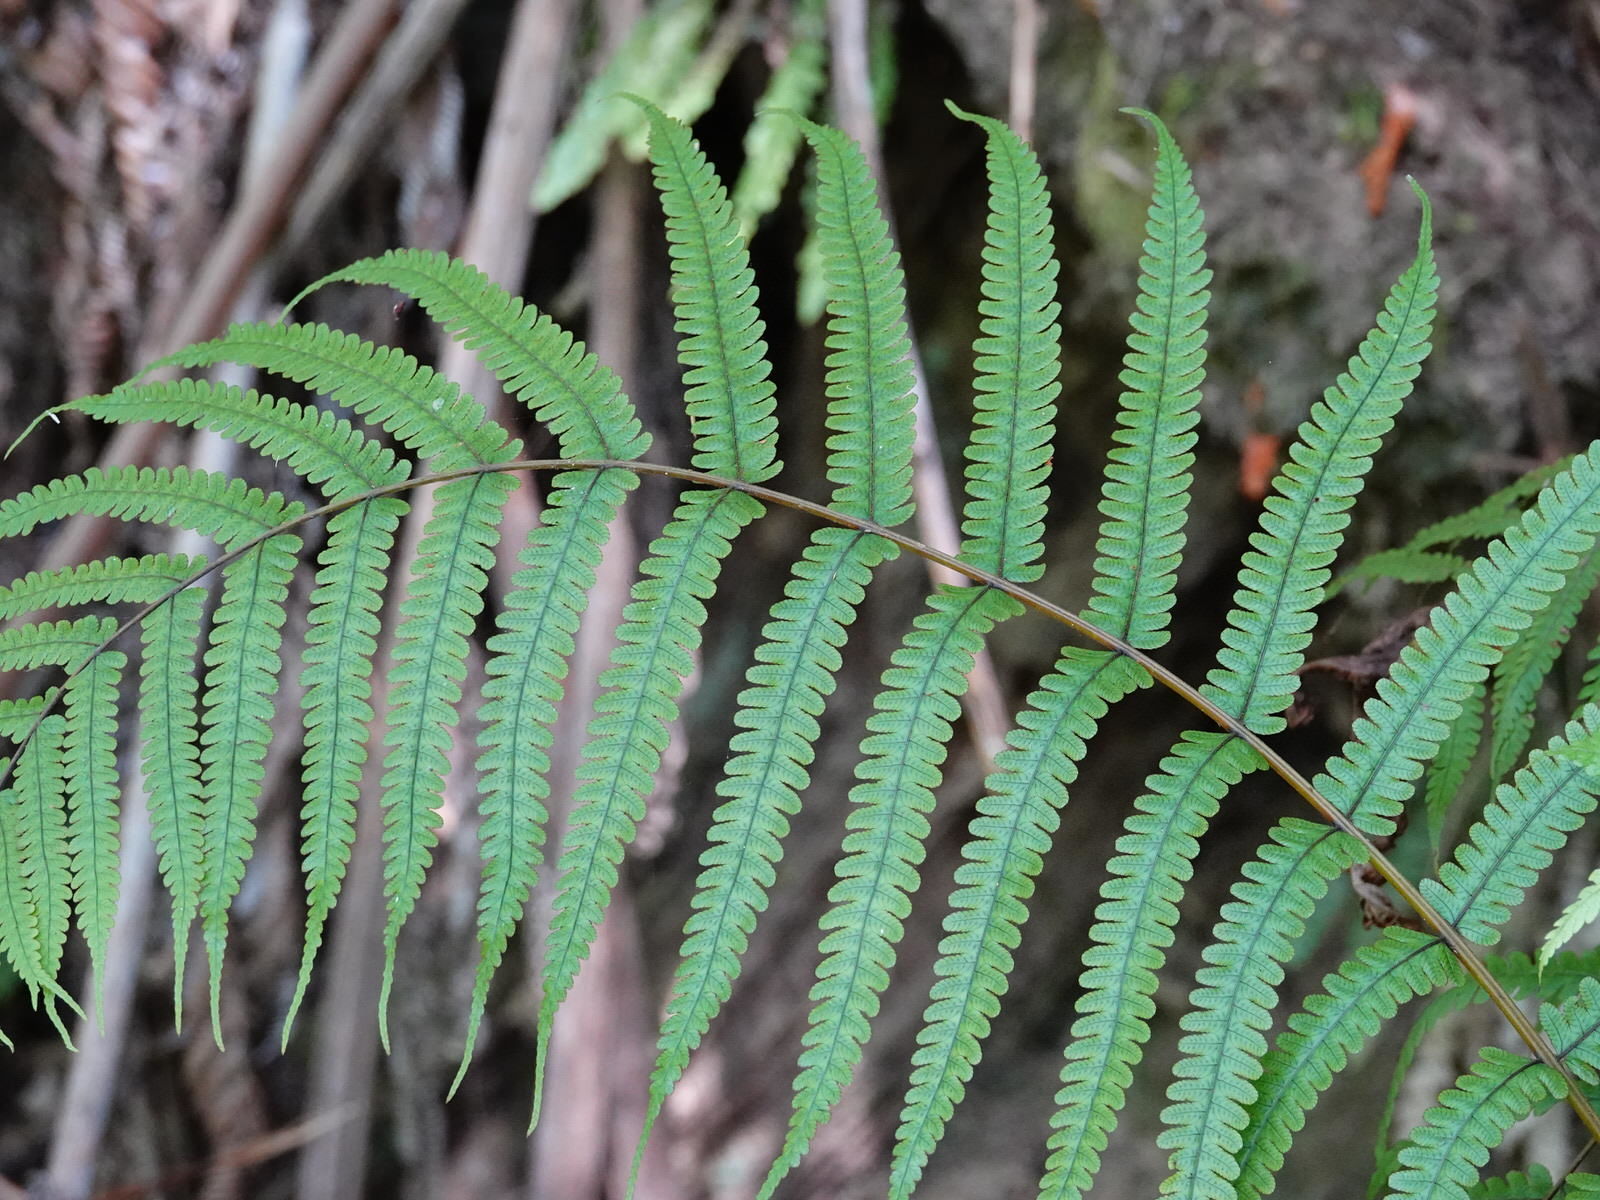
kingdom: Plantae
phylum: Tracheophyta
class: Polypodiopsida
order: Polypodiales
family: Thelypteridaceae
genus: Pakau
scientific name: Pakau pennigera
